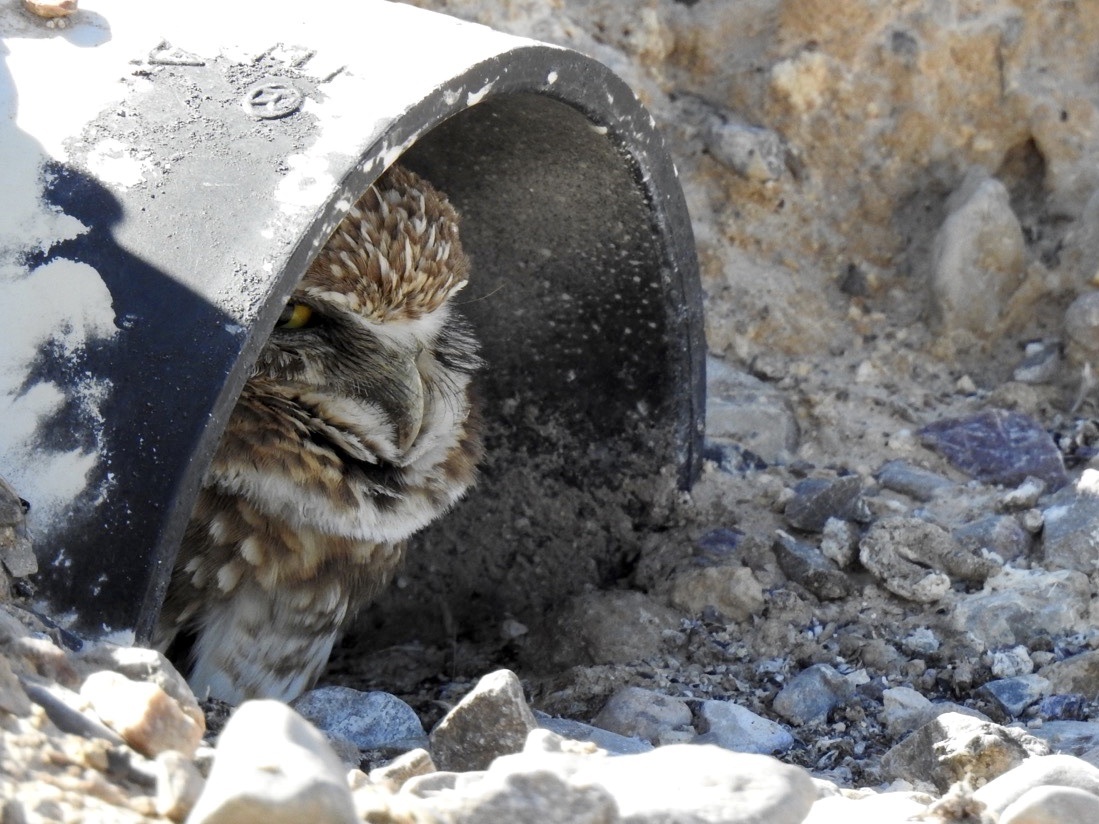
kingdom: Animalia
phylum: Chordata
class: Aves
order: Strigiformes
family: Strigidae
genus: Athene
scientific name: Athene cunicularia
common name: Burrowing owl
